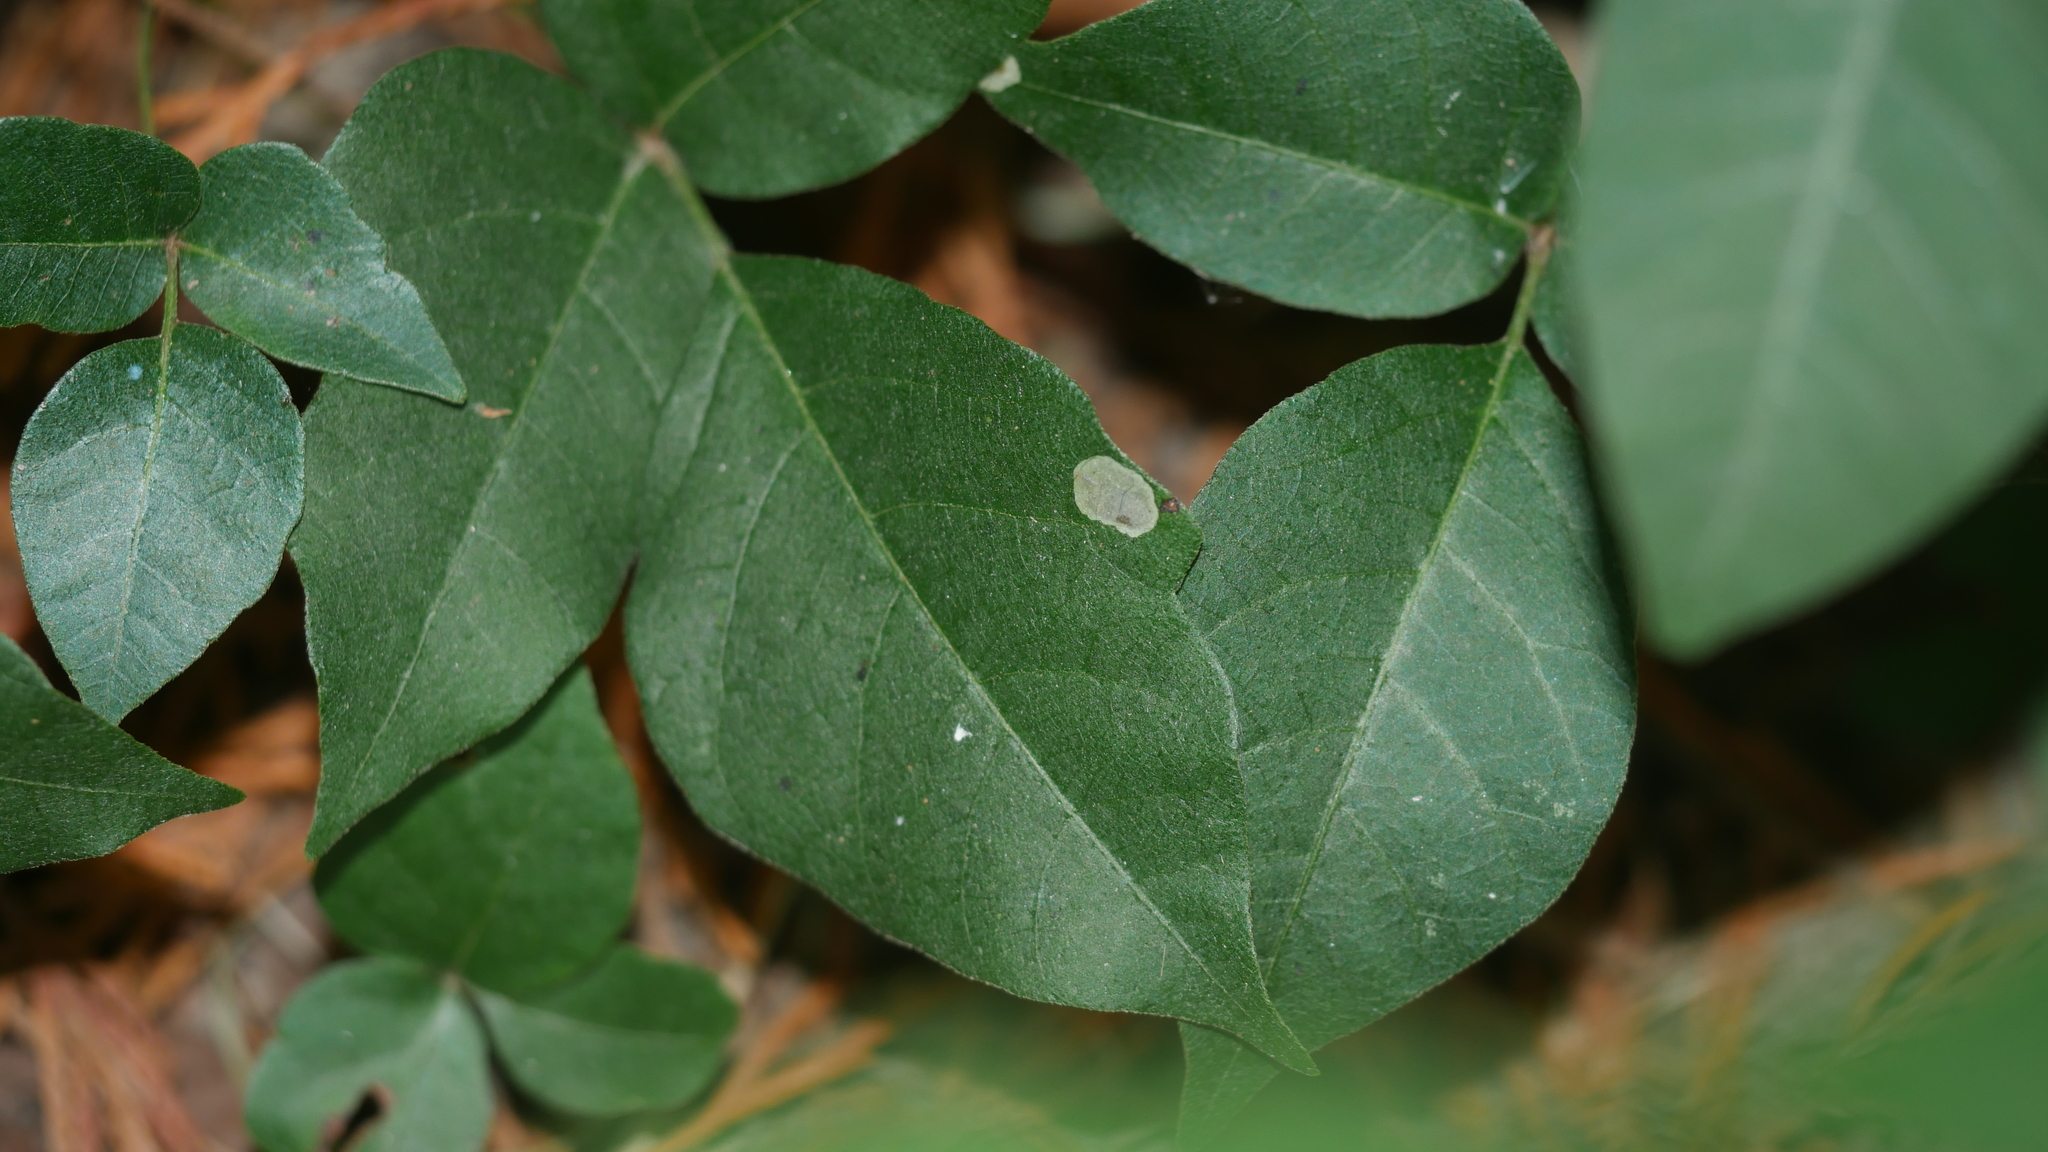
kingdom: Animalia
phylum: Arthropoda
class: Insecta
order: Lepidoptera
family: Gracillariidae
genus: Cameraria
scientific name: Cameraria guttifinitella
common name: Poison ivy leaf-miner moth
